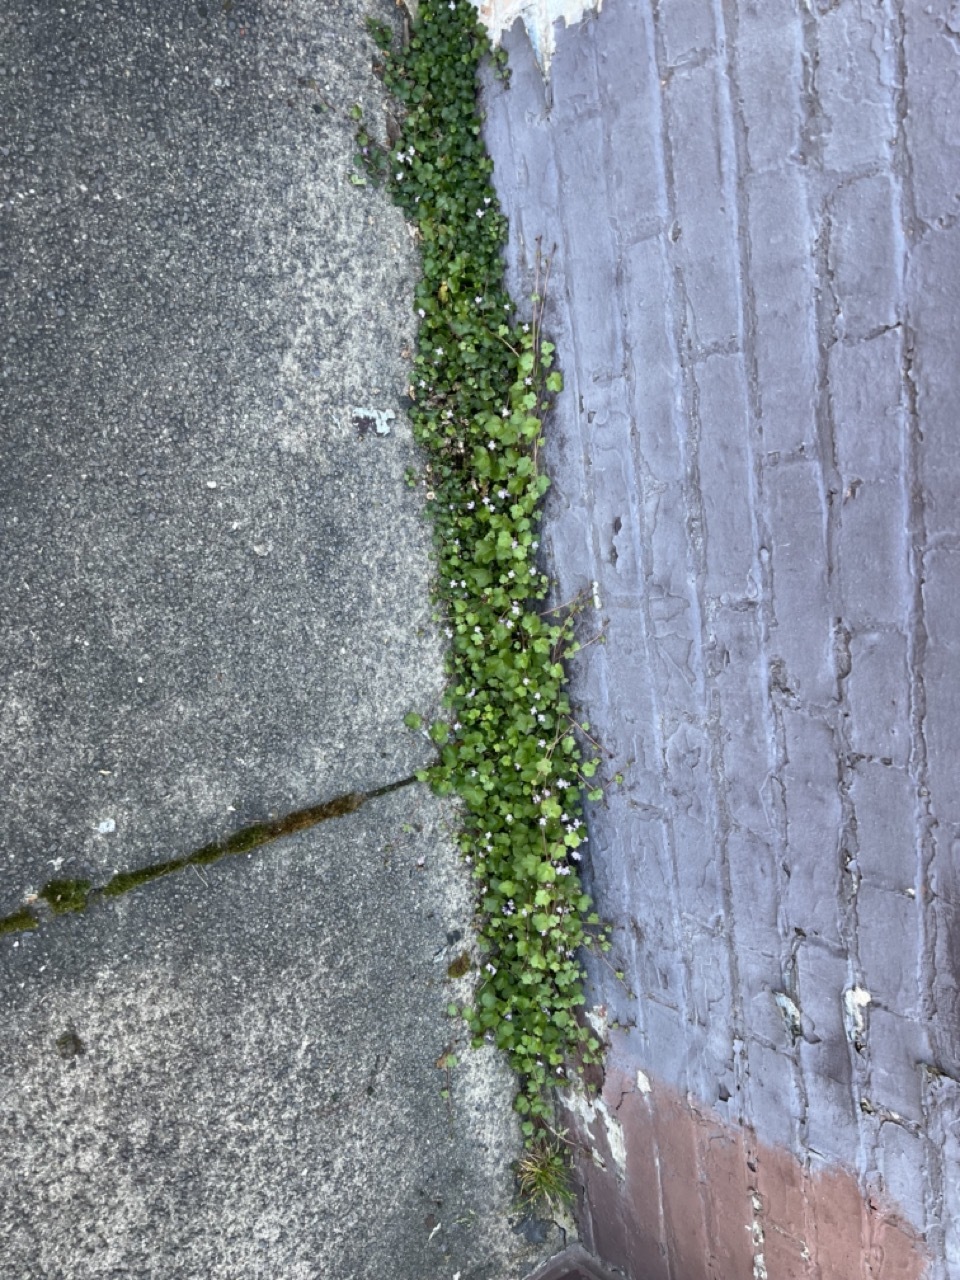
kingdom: Plantae
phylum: Tracheophyta
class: Magnoliopsida
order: Lamiales
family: Plantaginaceae
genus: Cymbalaria
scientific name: Cymbalaria muralis
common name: Ivy-leaved toadflax
